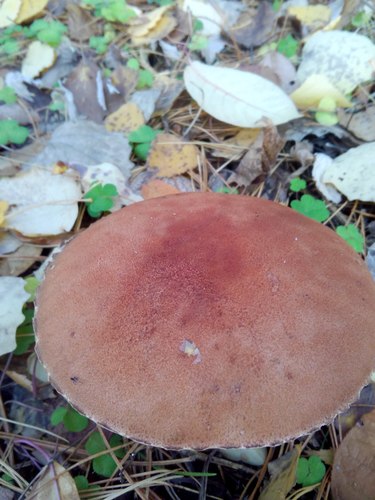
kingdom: Fungi
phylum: Basidiomycota
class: Agaricomycetes
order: Boletales
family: Boletaceae
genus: Leccinum
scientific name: Leccinum aurantiacum
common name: Orange bolete
